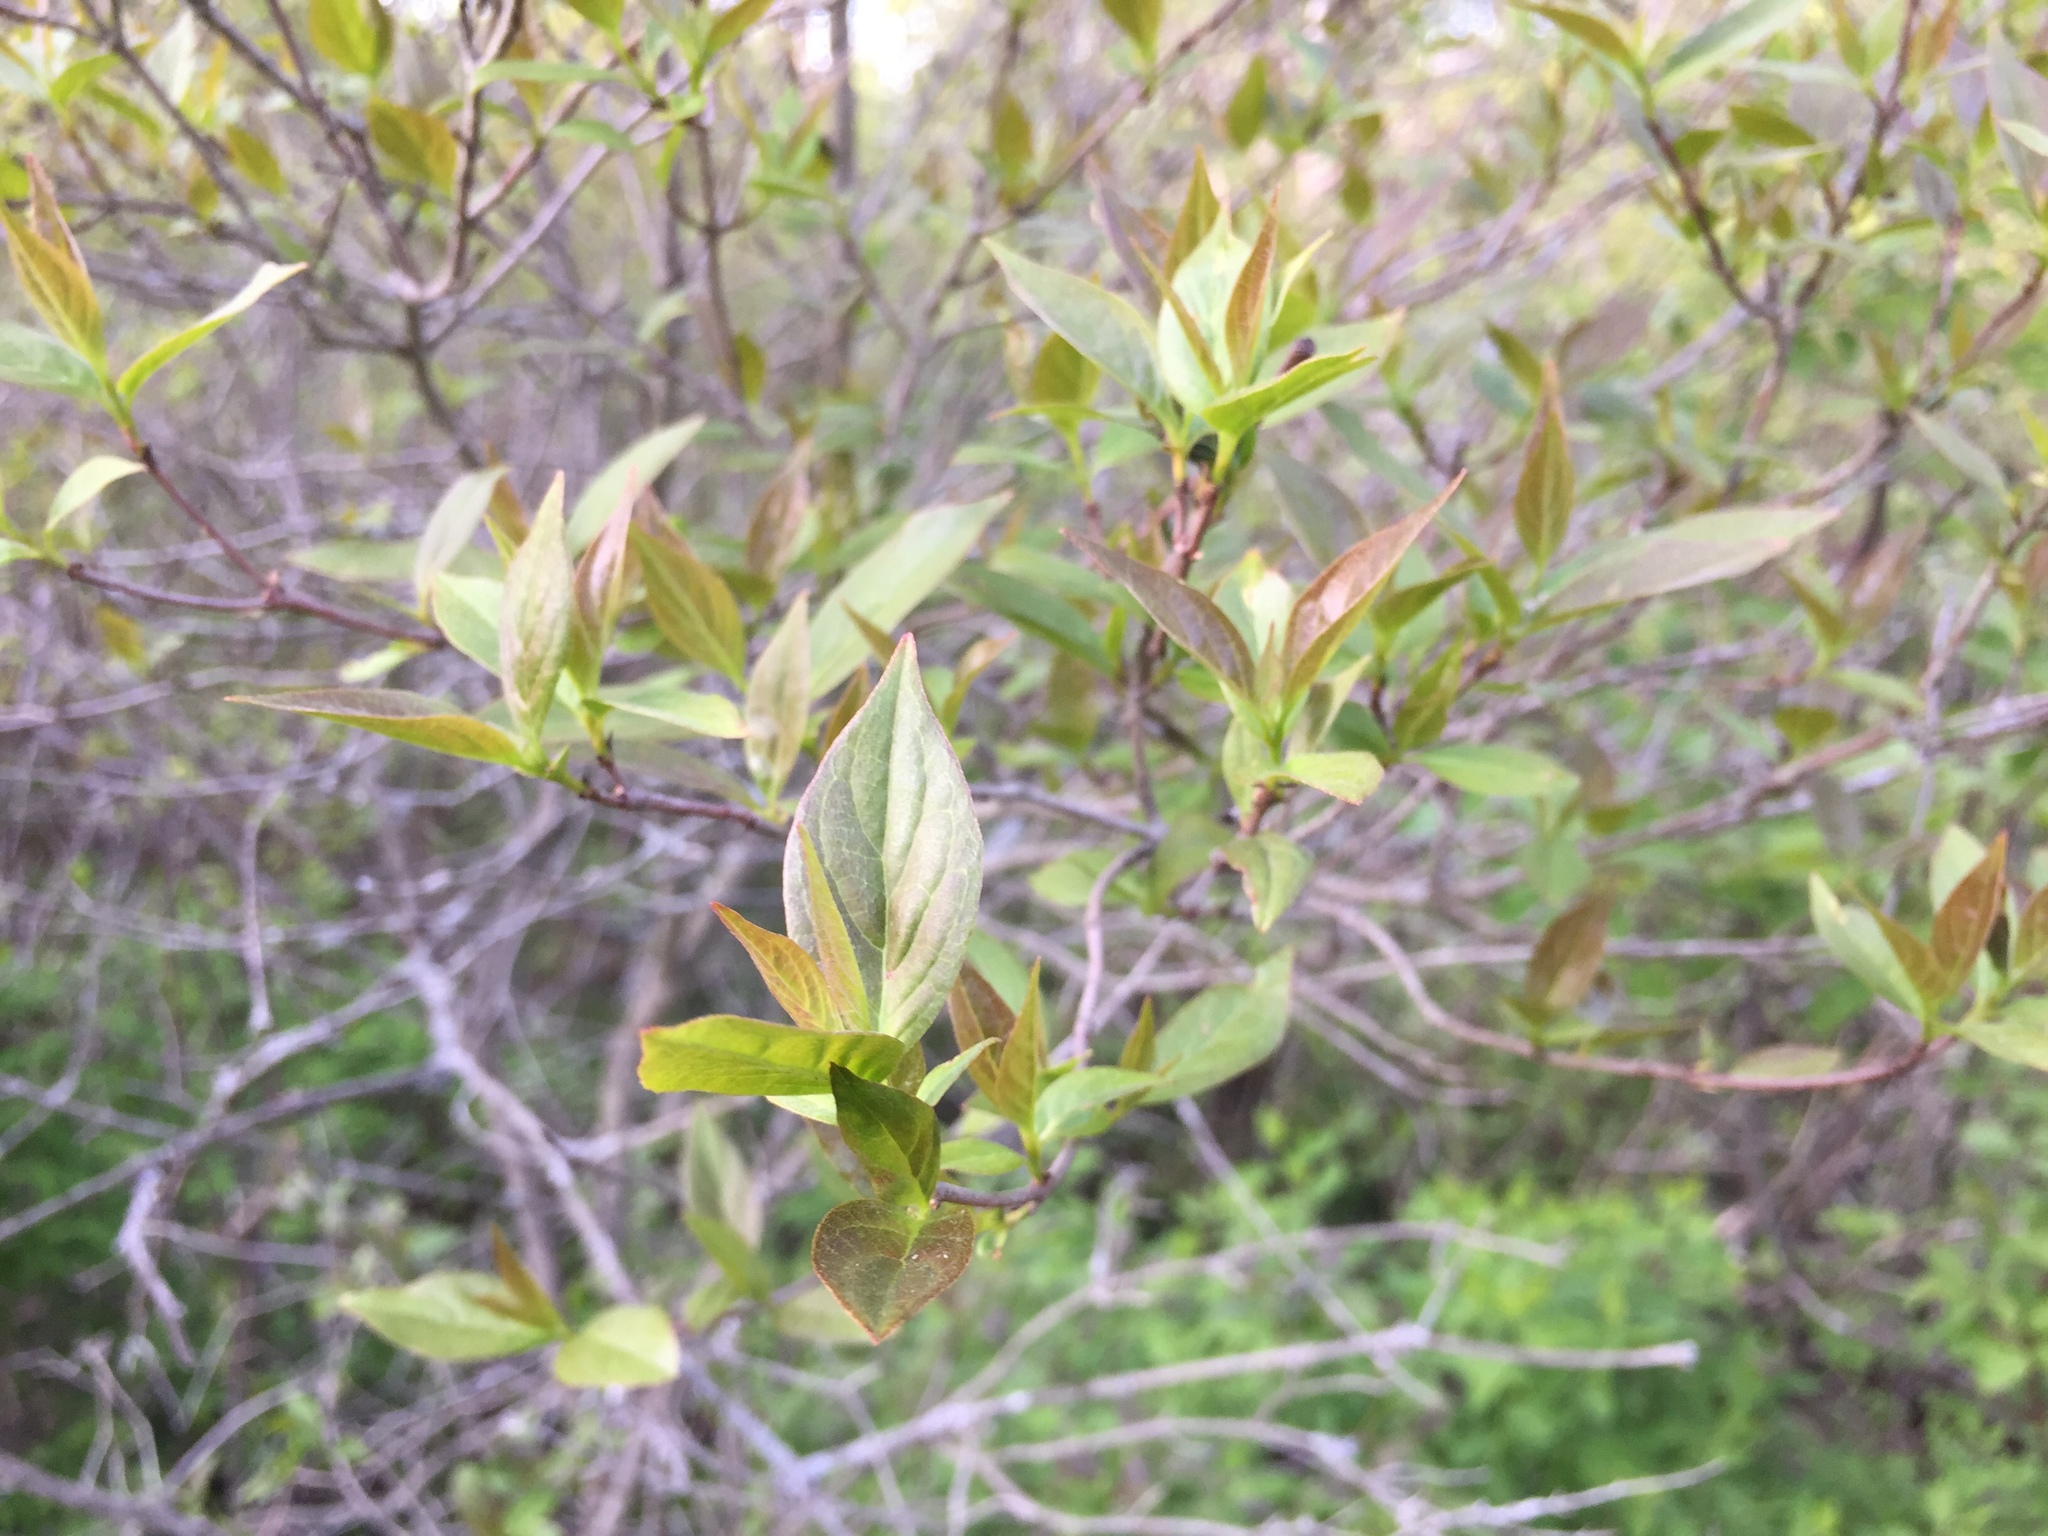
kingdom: Plantae
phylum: Tracheophyta
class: Magnoliopsida
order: Cornales
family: Cornaceae
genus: Cornus
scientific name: Cornus racemosa
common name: Panicled dogwood
